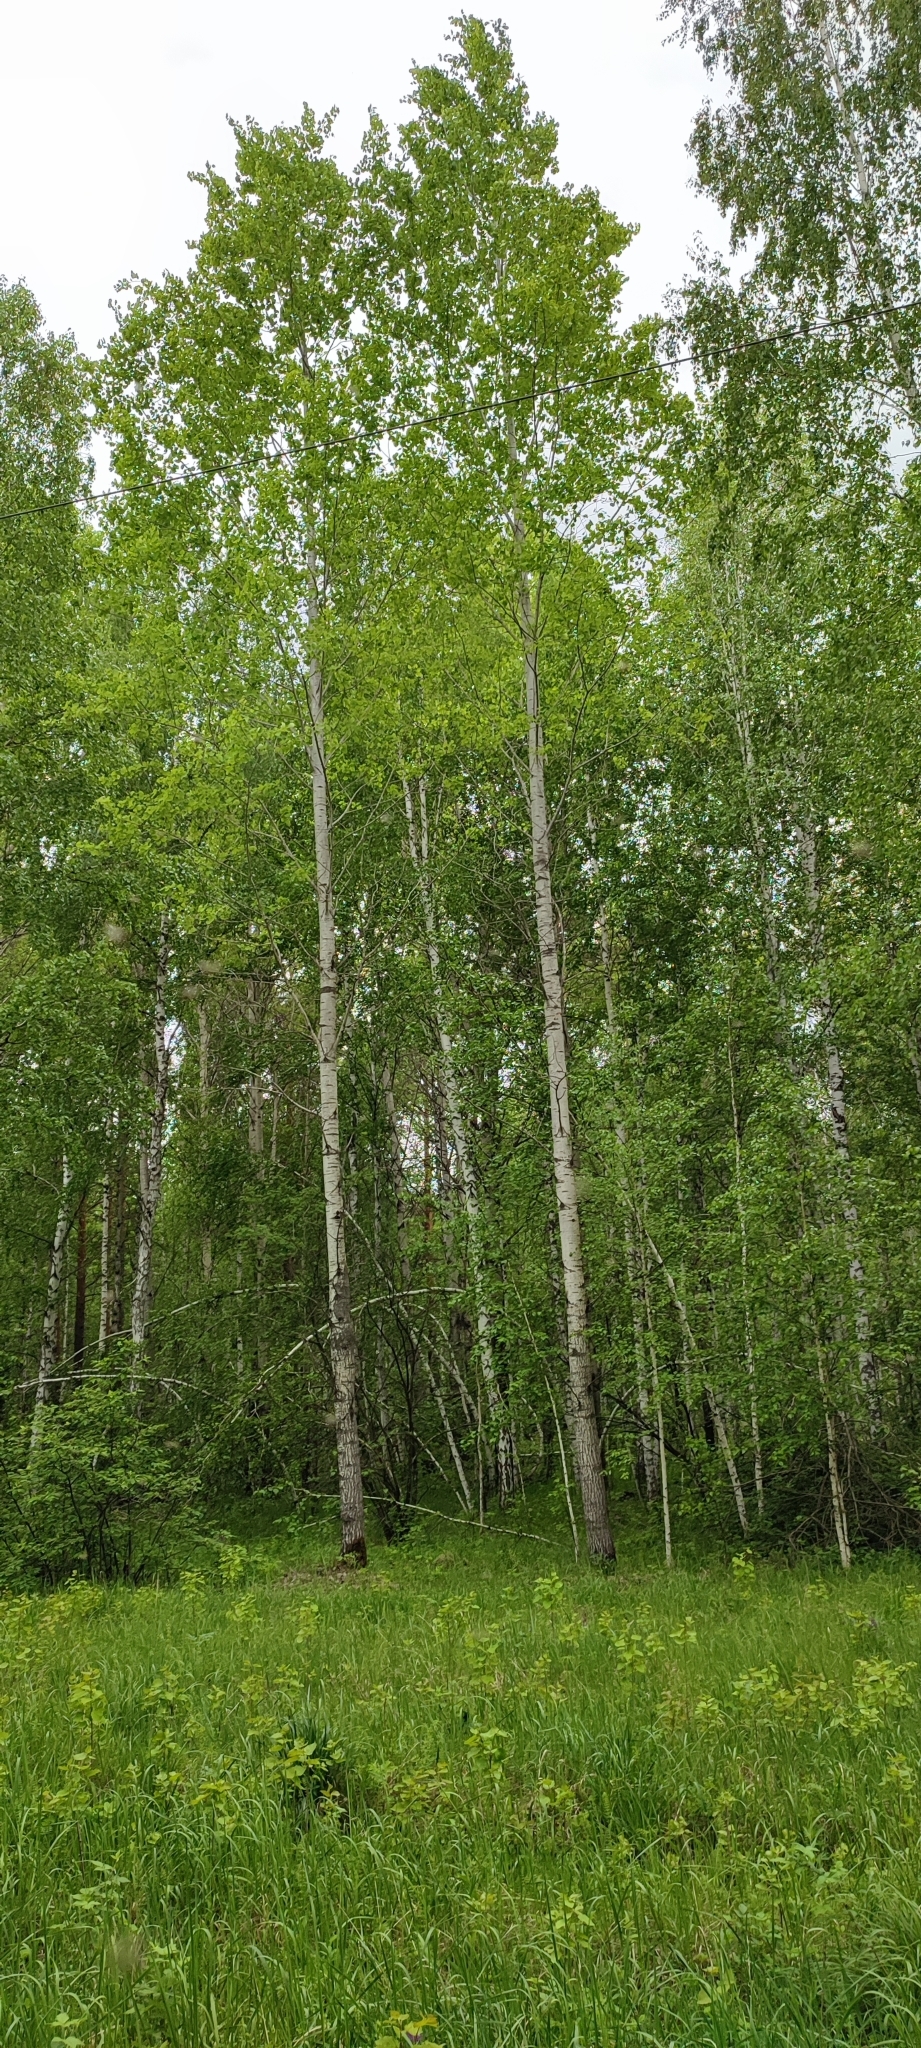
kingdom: Plantae
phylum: Tracheophyta
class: Magnoliopsida
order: Malpighiales
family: Salicaceae
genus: Populus
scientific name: Populus tremula
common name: European aspen
